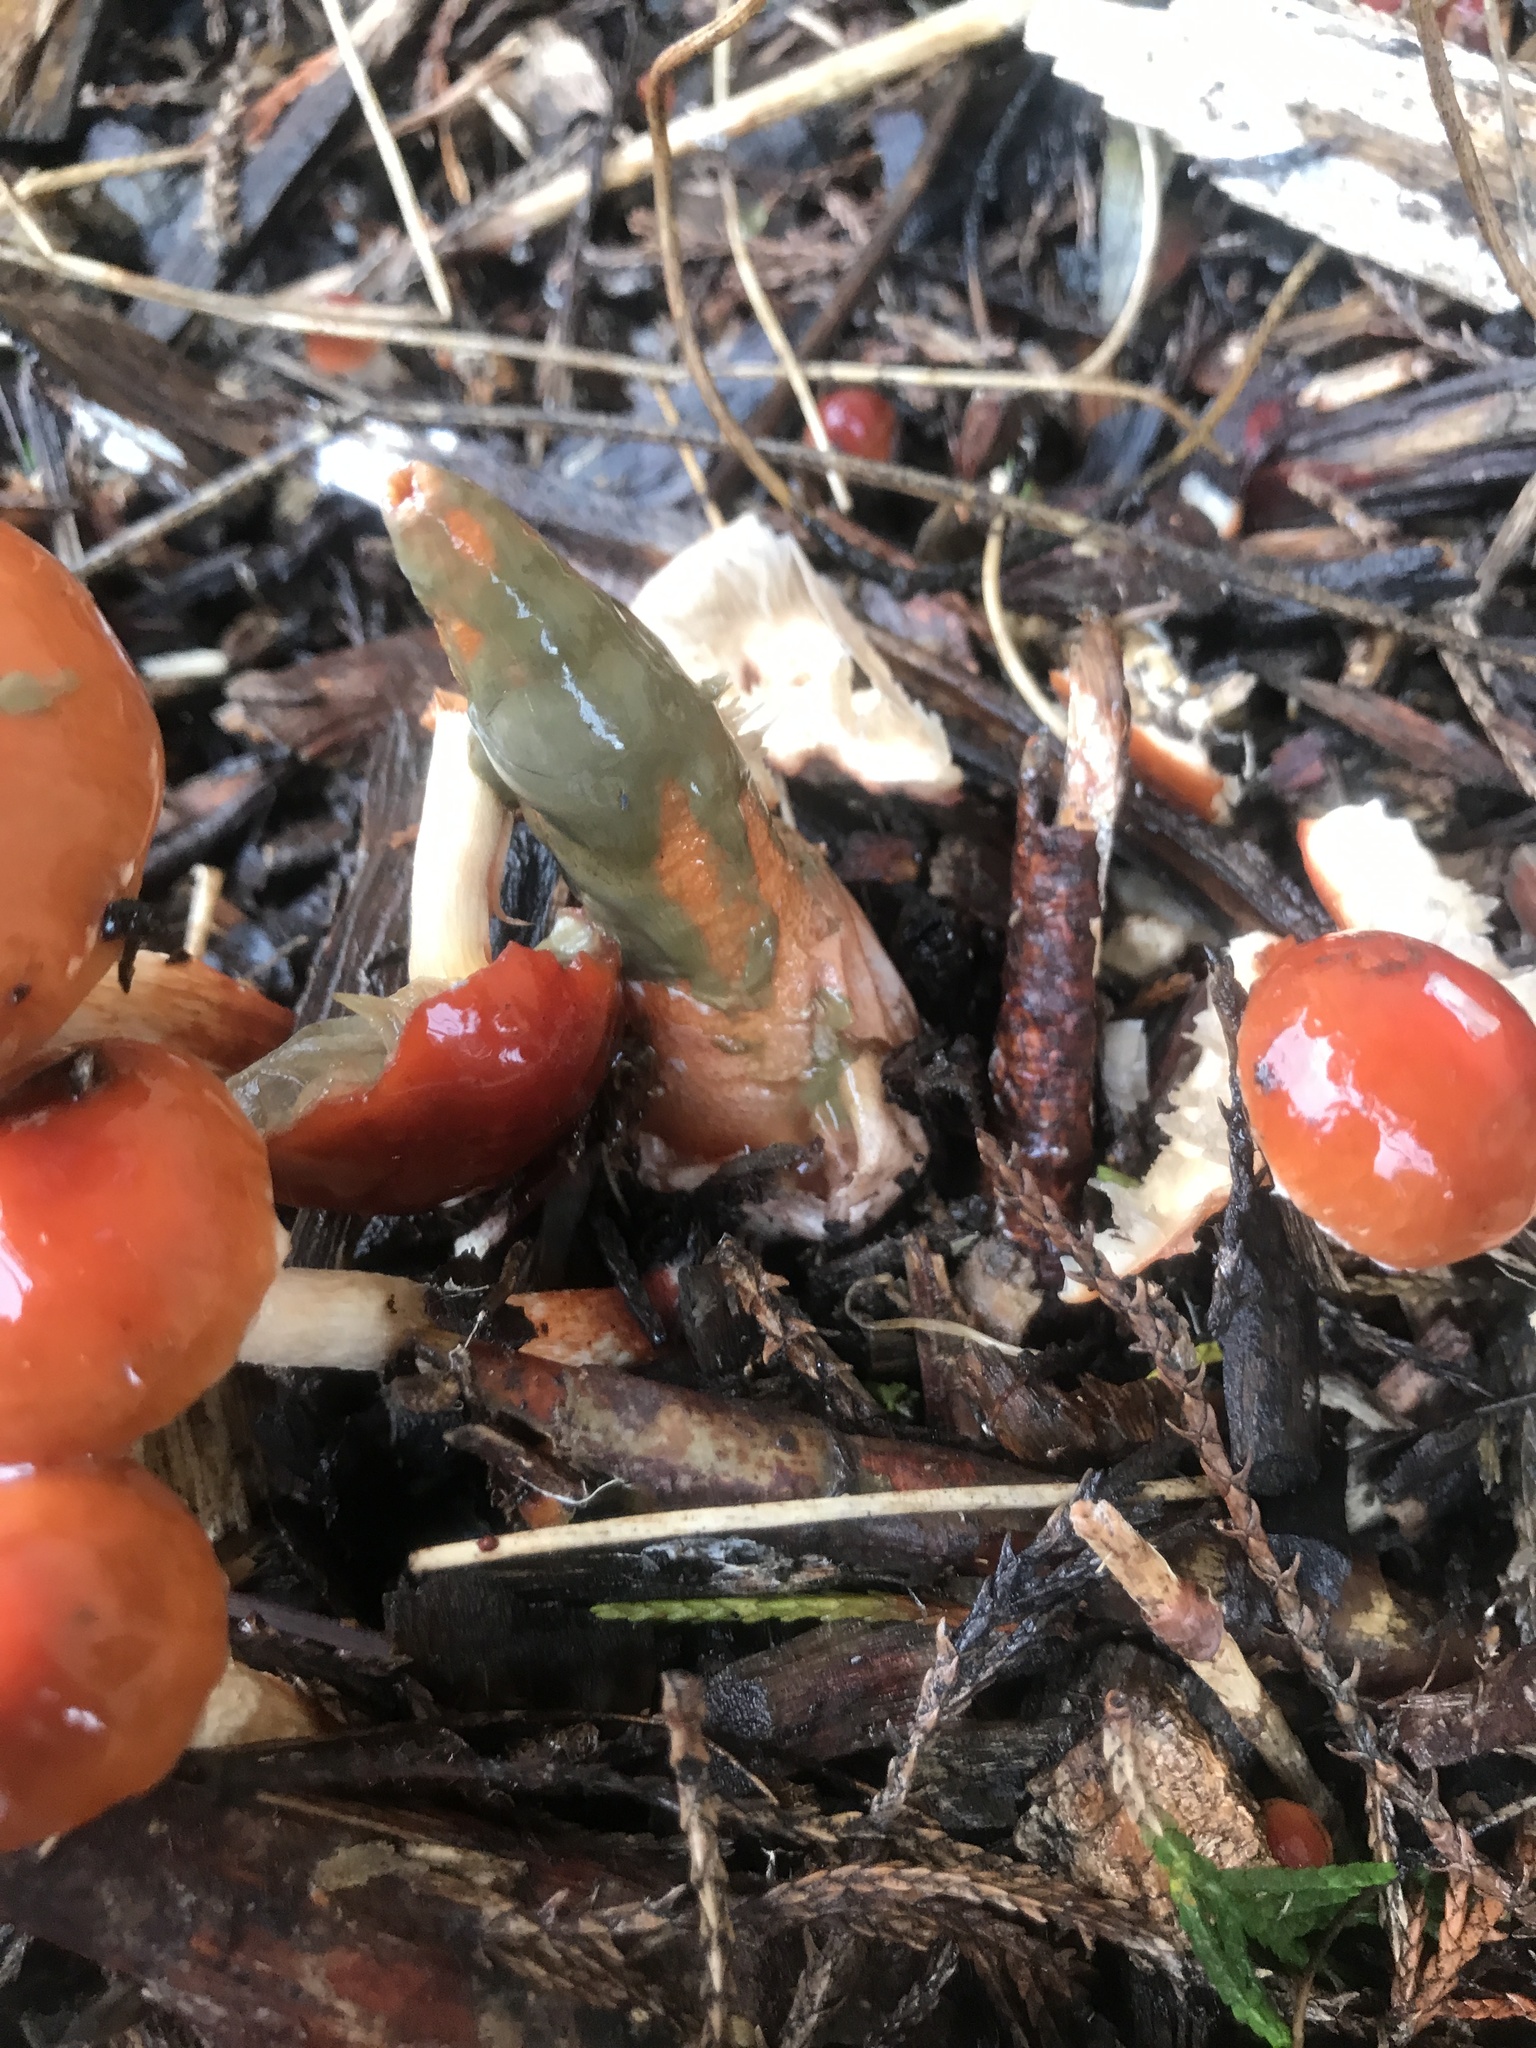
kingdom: Fungi
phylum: Basidiomycota
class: Agaricomycetes
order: Phallales
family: Phallaceae
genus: Mutinus
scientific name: Mutinus elegans
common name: Devil's dipstick
